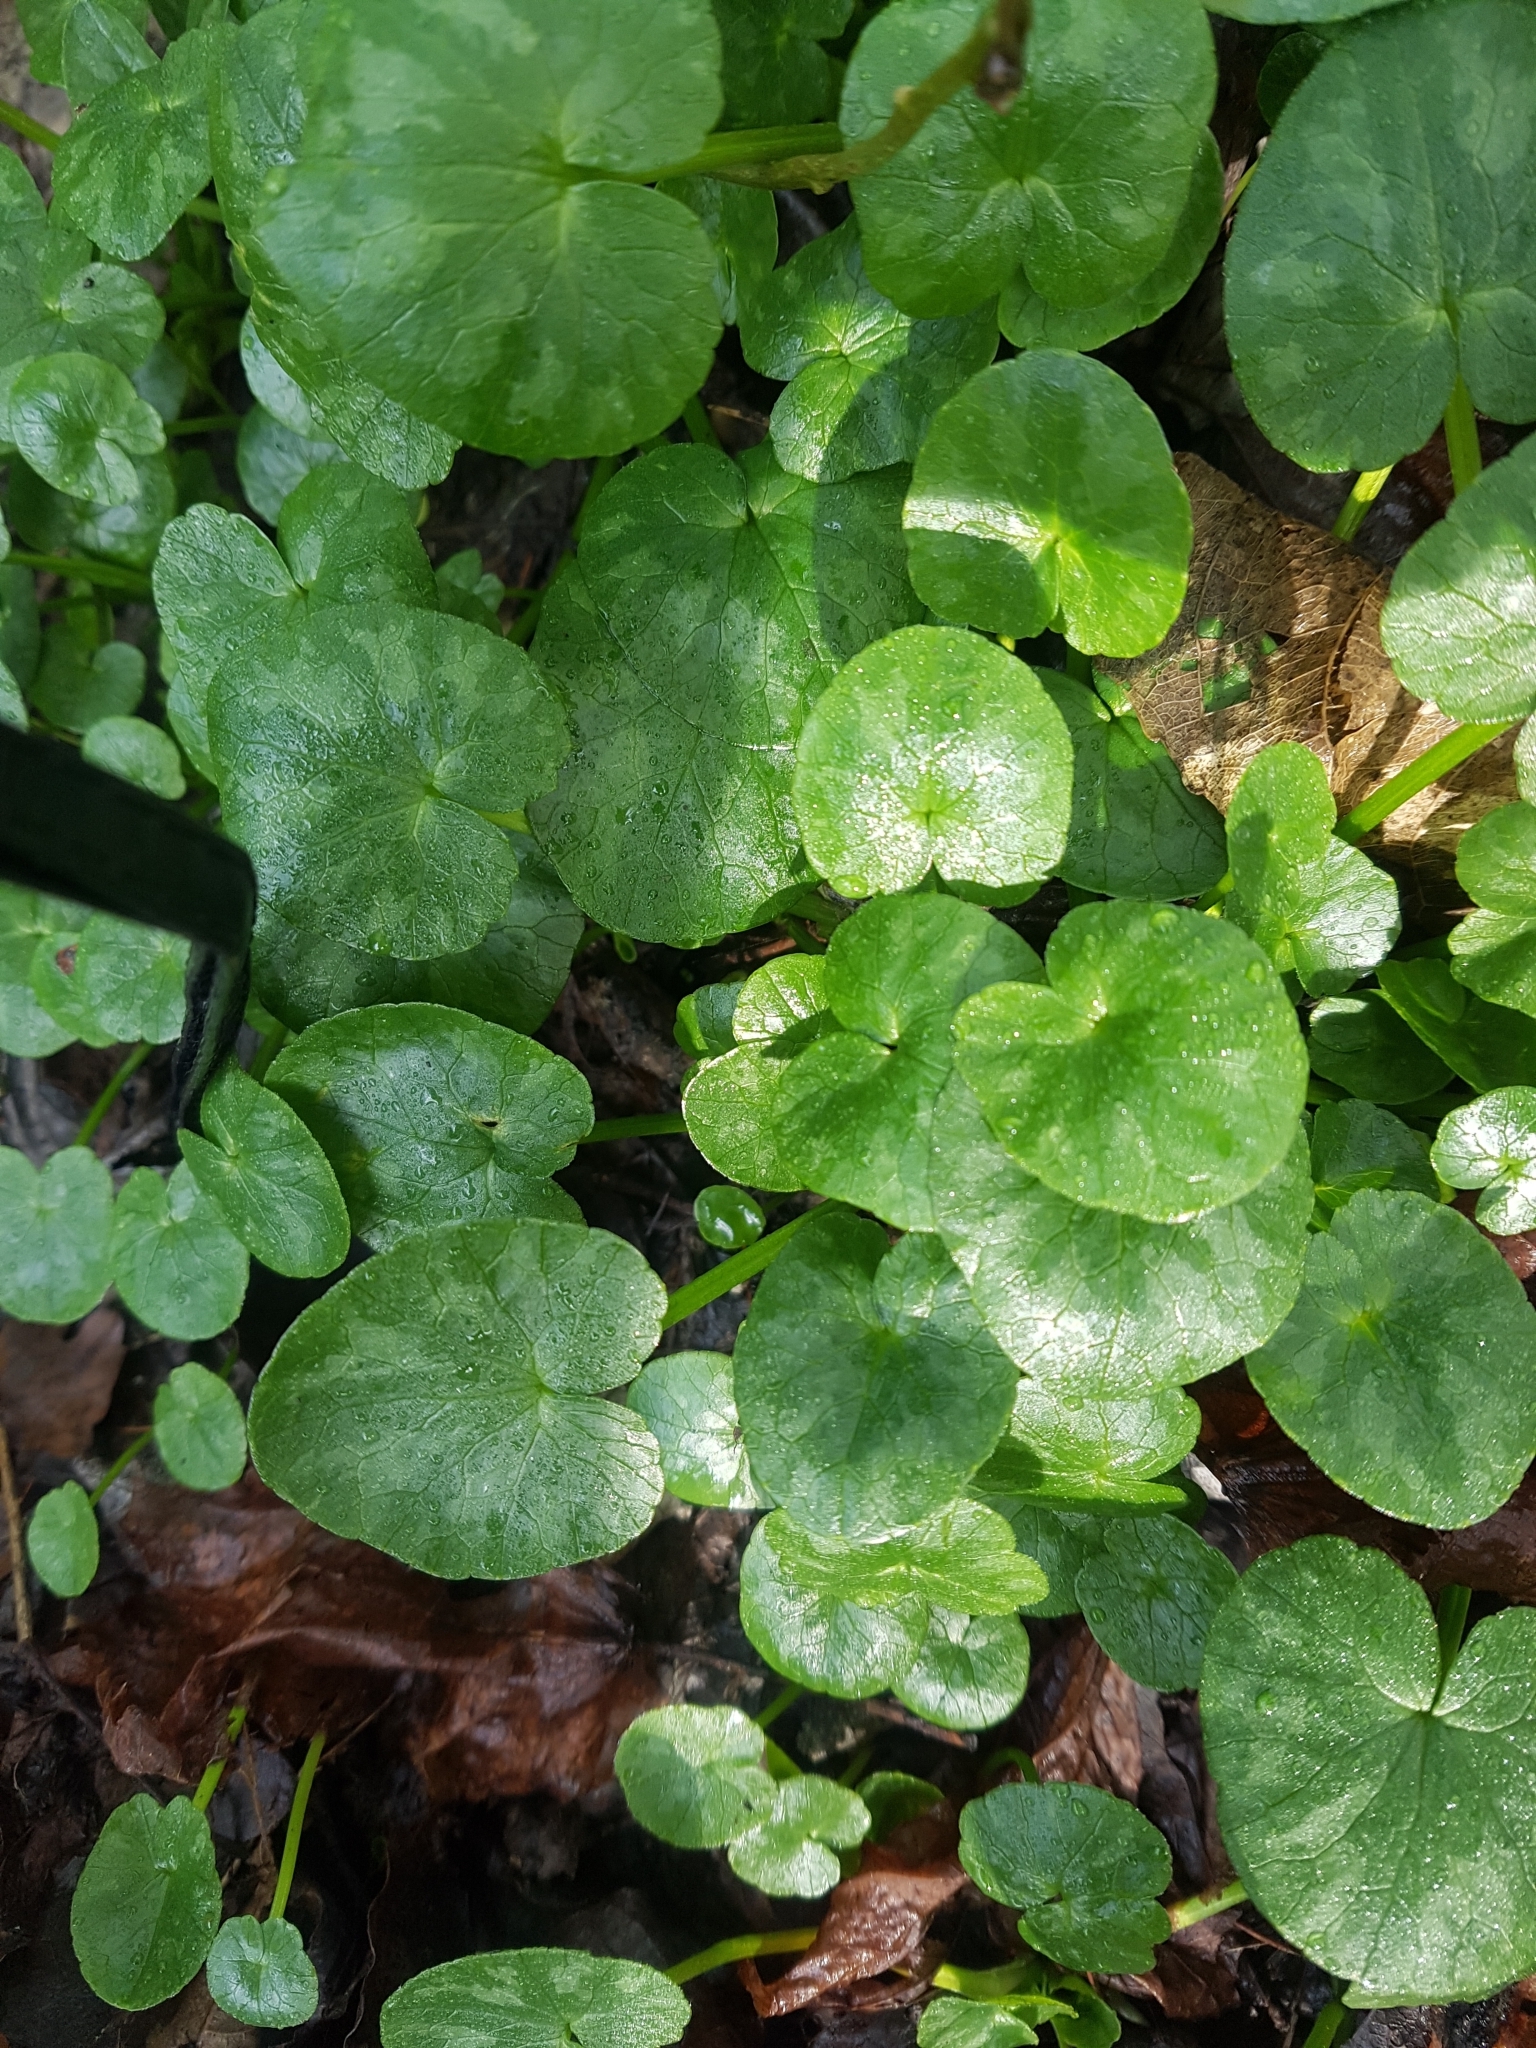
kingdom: Plantae
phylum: Tracheophyta
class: Magnoliopsida
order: Ranunculales
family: Ranunculaceae
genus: Ficaria
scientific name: Ficaria verna
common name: Lesser celandine
